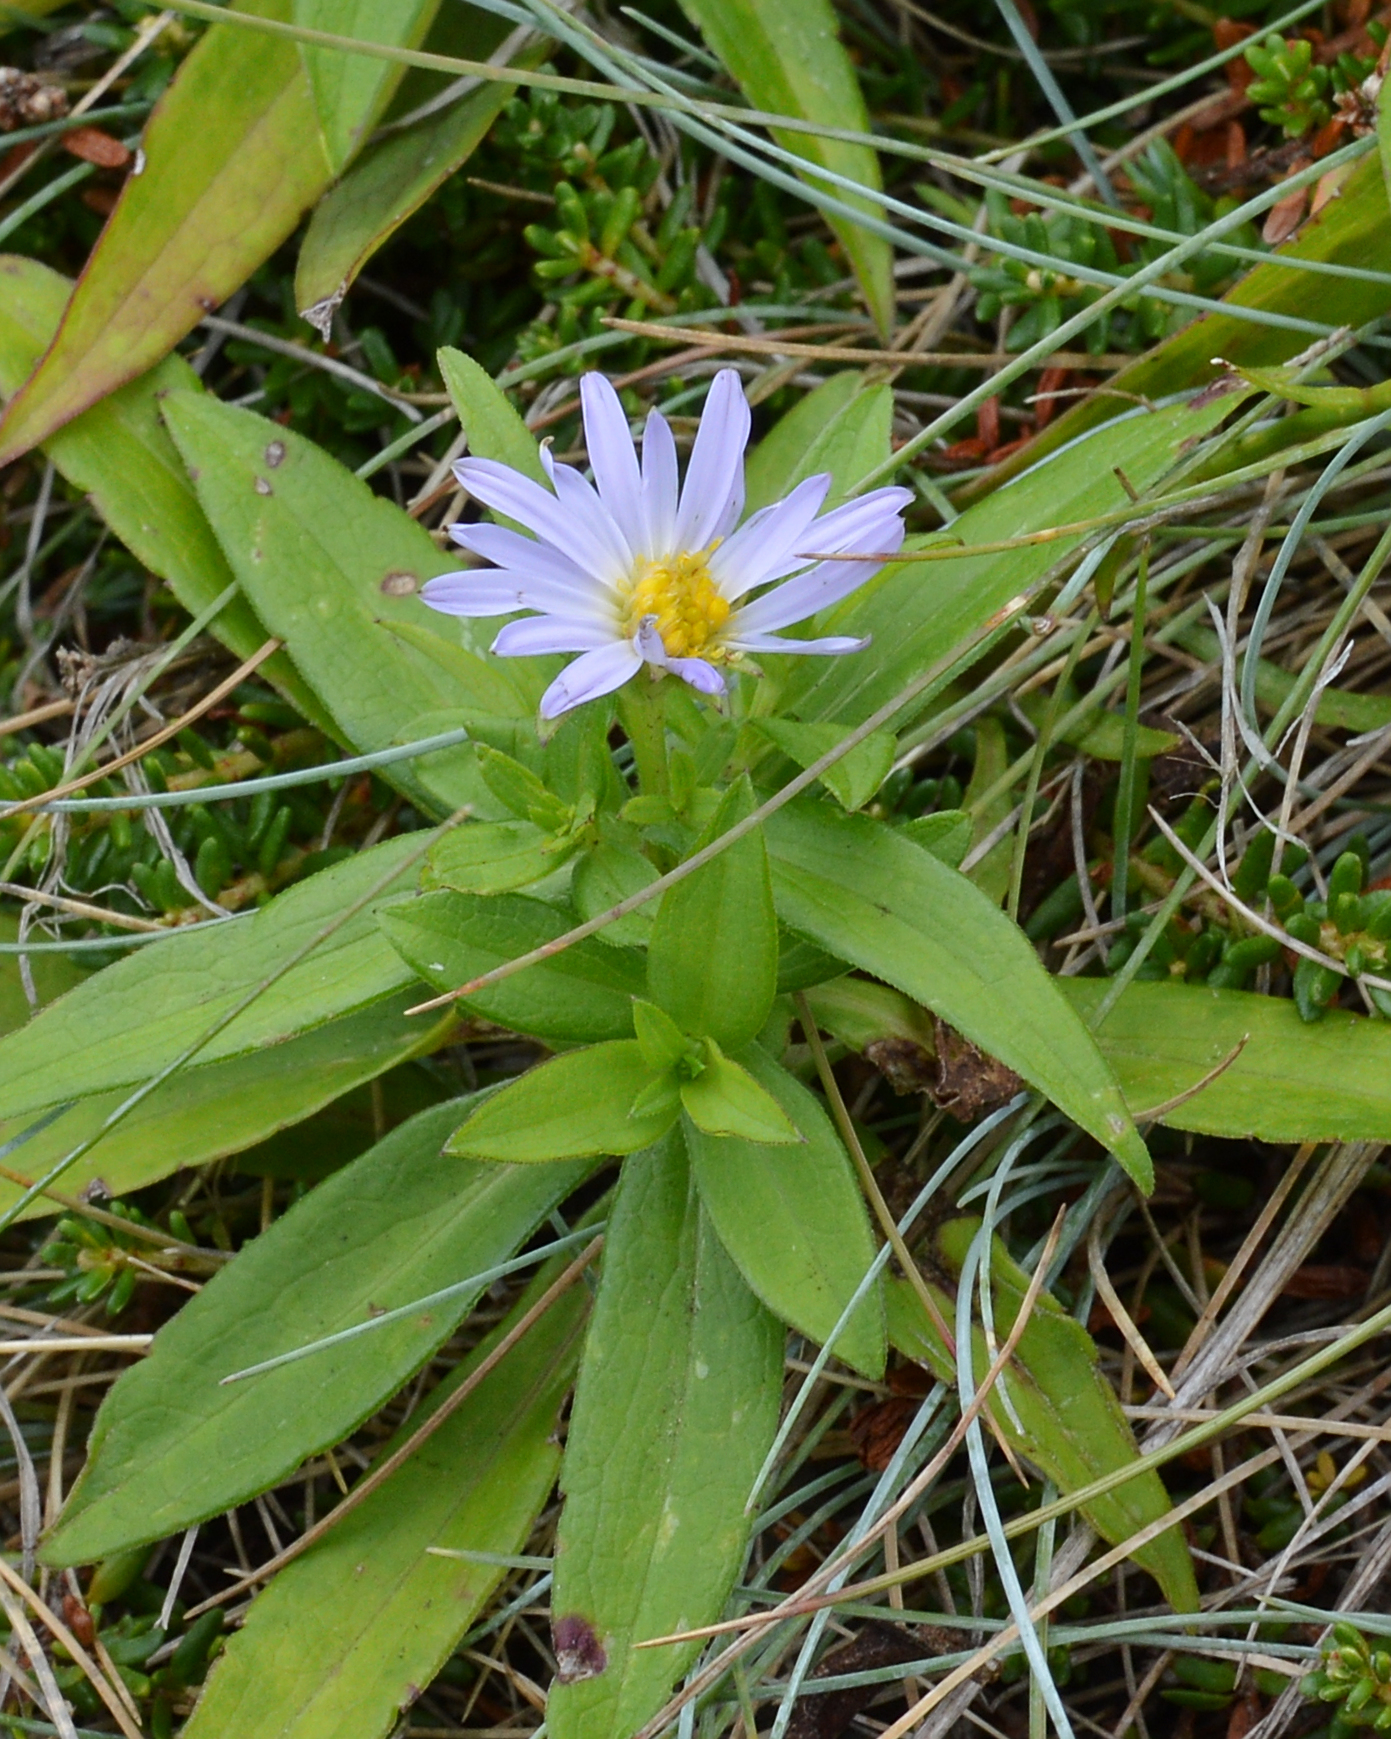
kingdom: Plantae
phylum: Tracheophyta
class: Magnoliopsida
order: Asterales
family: Asteraceae
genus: Symphyotrichum
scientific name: Symphyotrichum novi-belgii
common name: Michaelmas daisy
